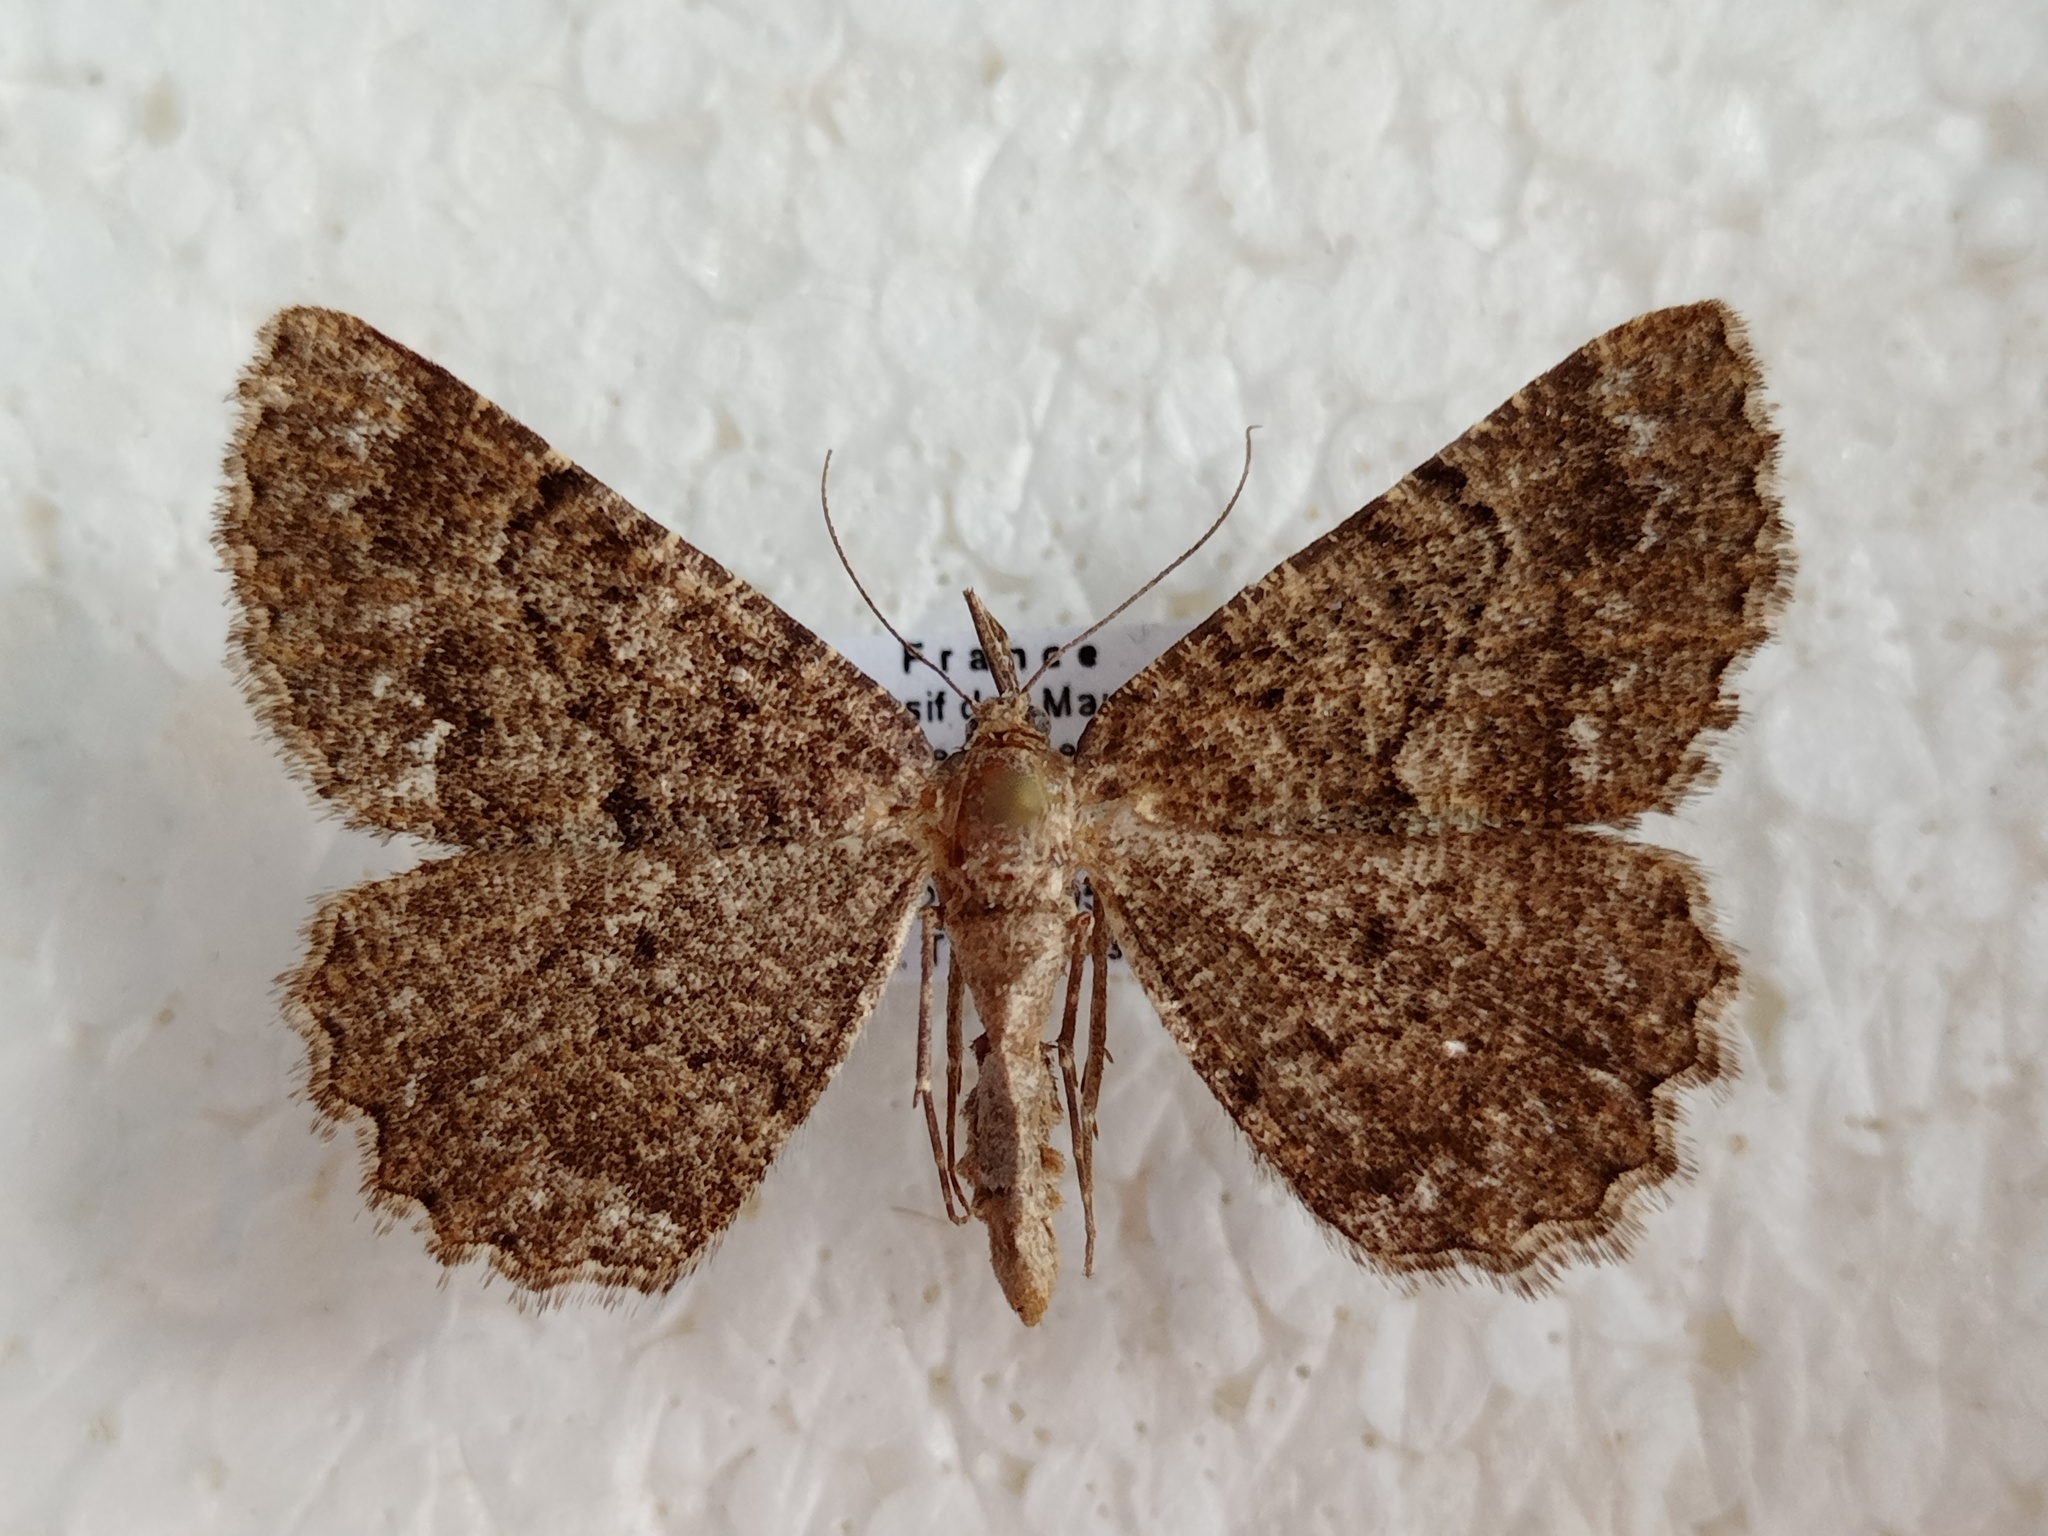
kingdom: Animalia
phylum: Arthropoda
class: Insecta
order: Lepidoptera
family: Geometridae
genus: Selidosema
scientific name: Selidosema taeniolaria
